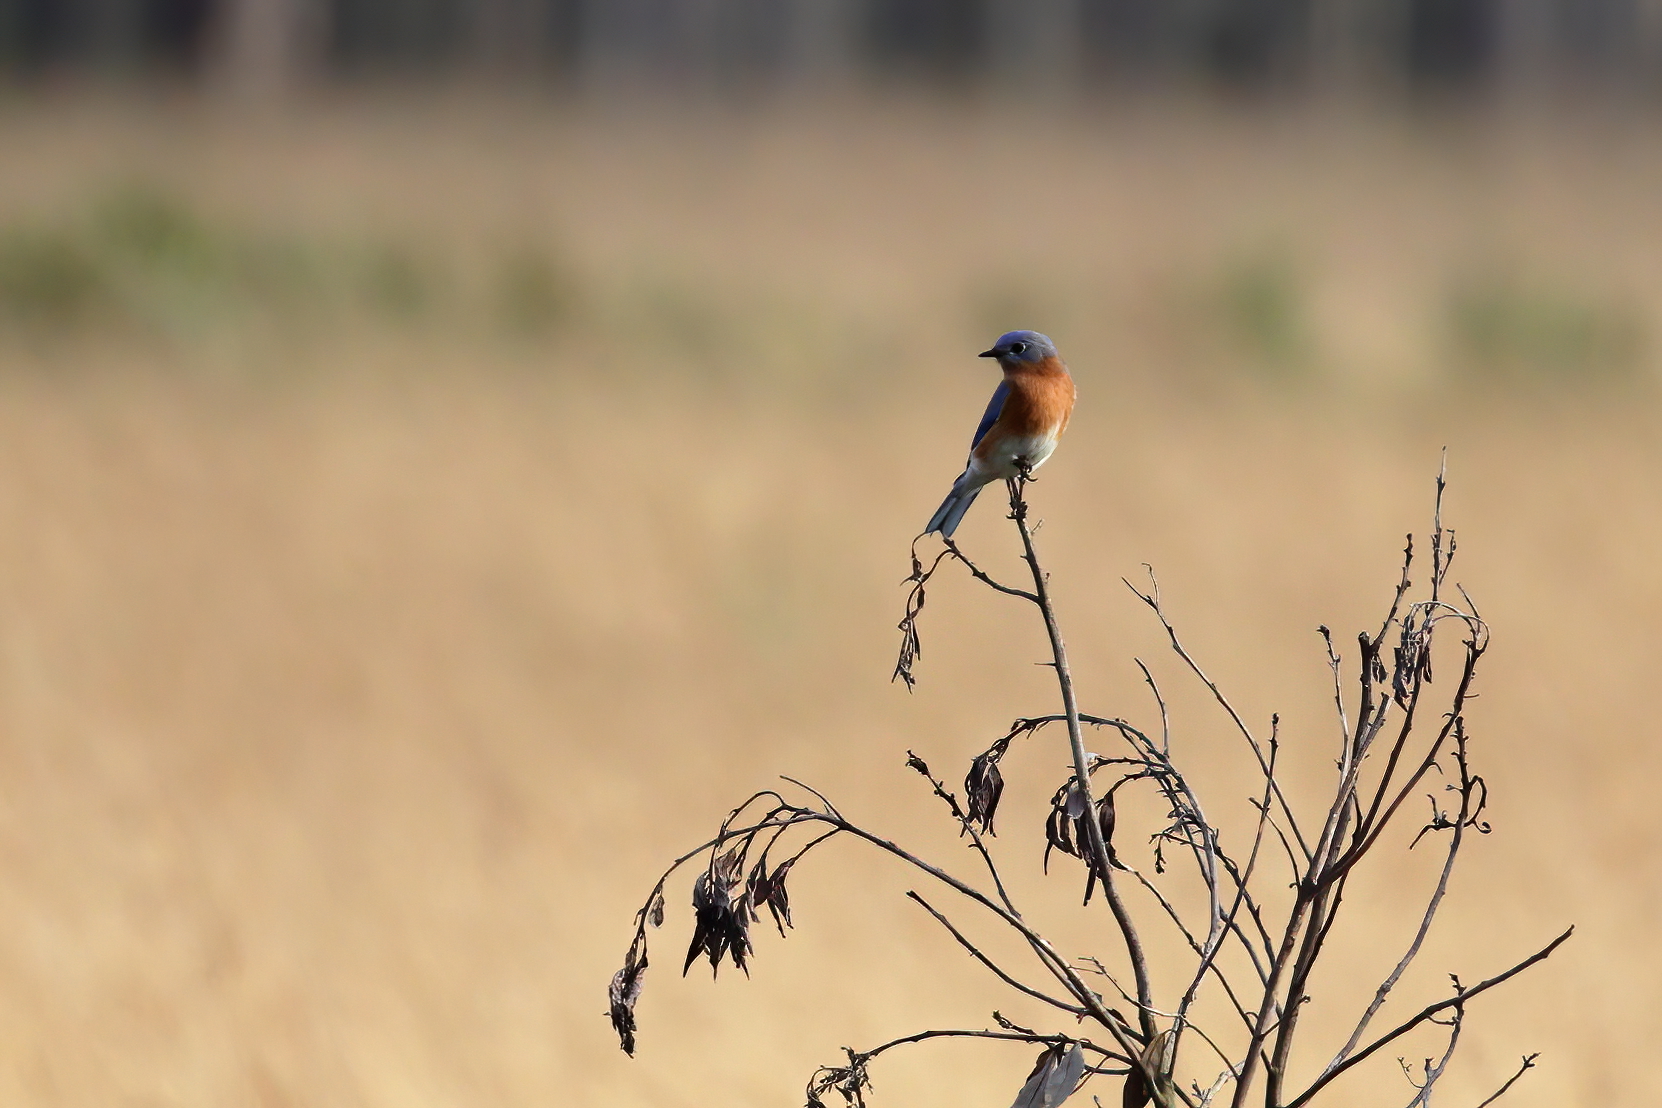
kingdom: Animalia
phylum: Chordata
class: Aves
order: Passeriformes
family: Turdidae
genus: Sialia
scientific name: Sialia sialis
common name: Eastern bluebird
